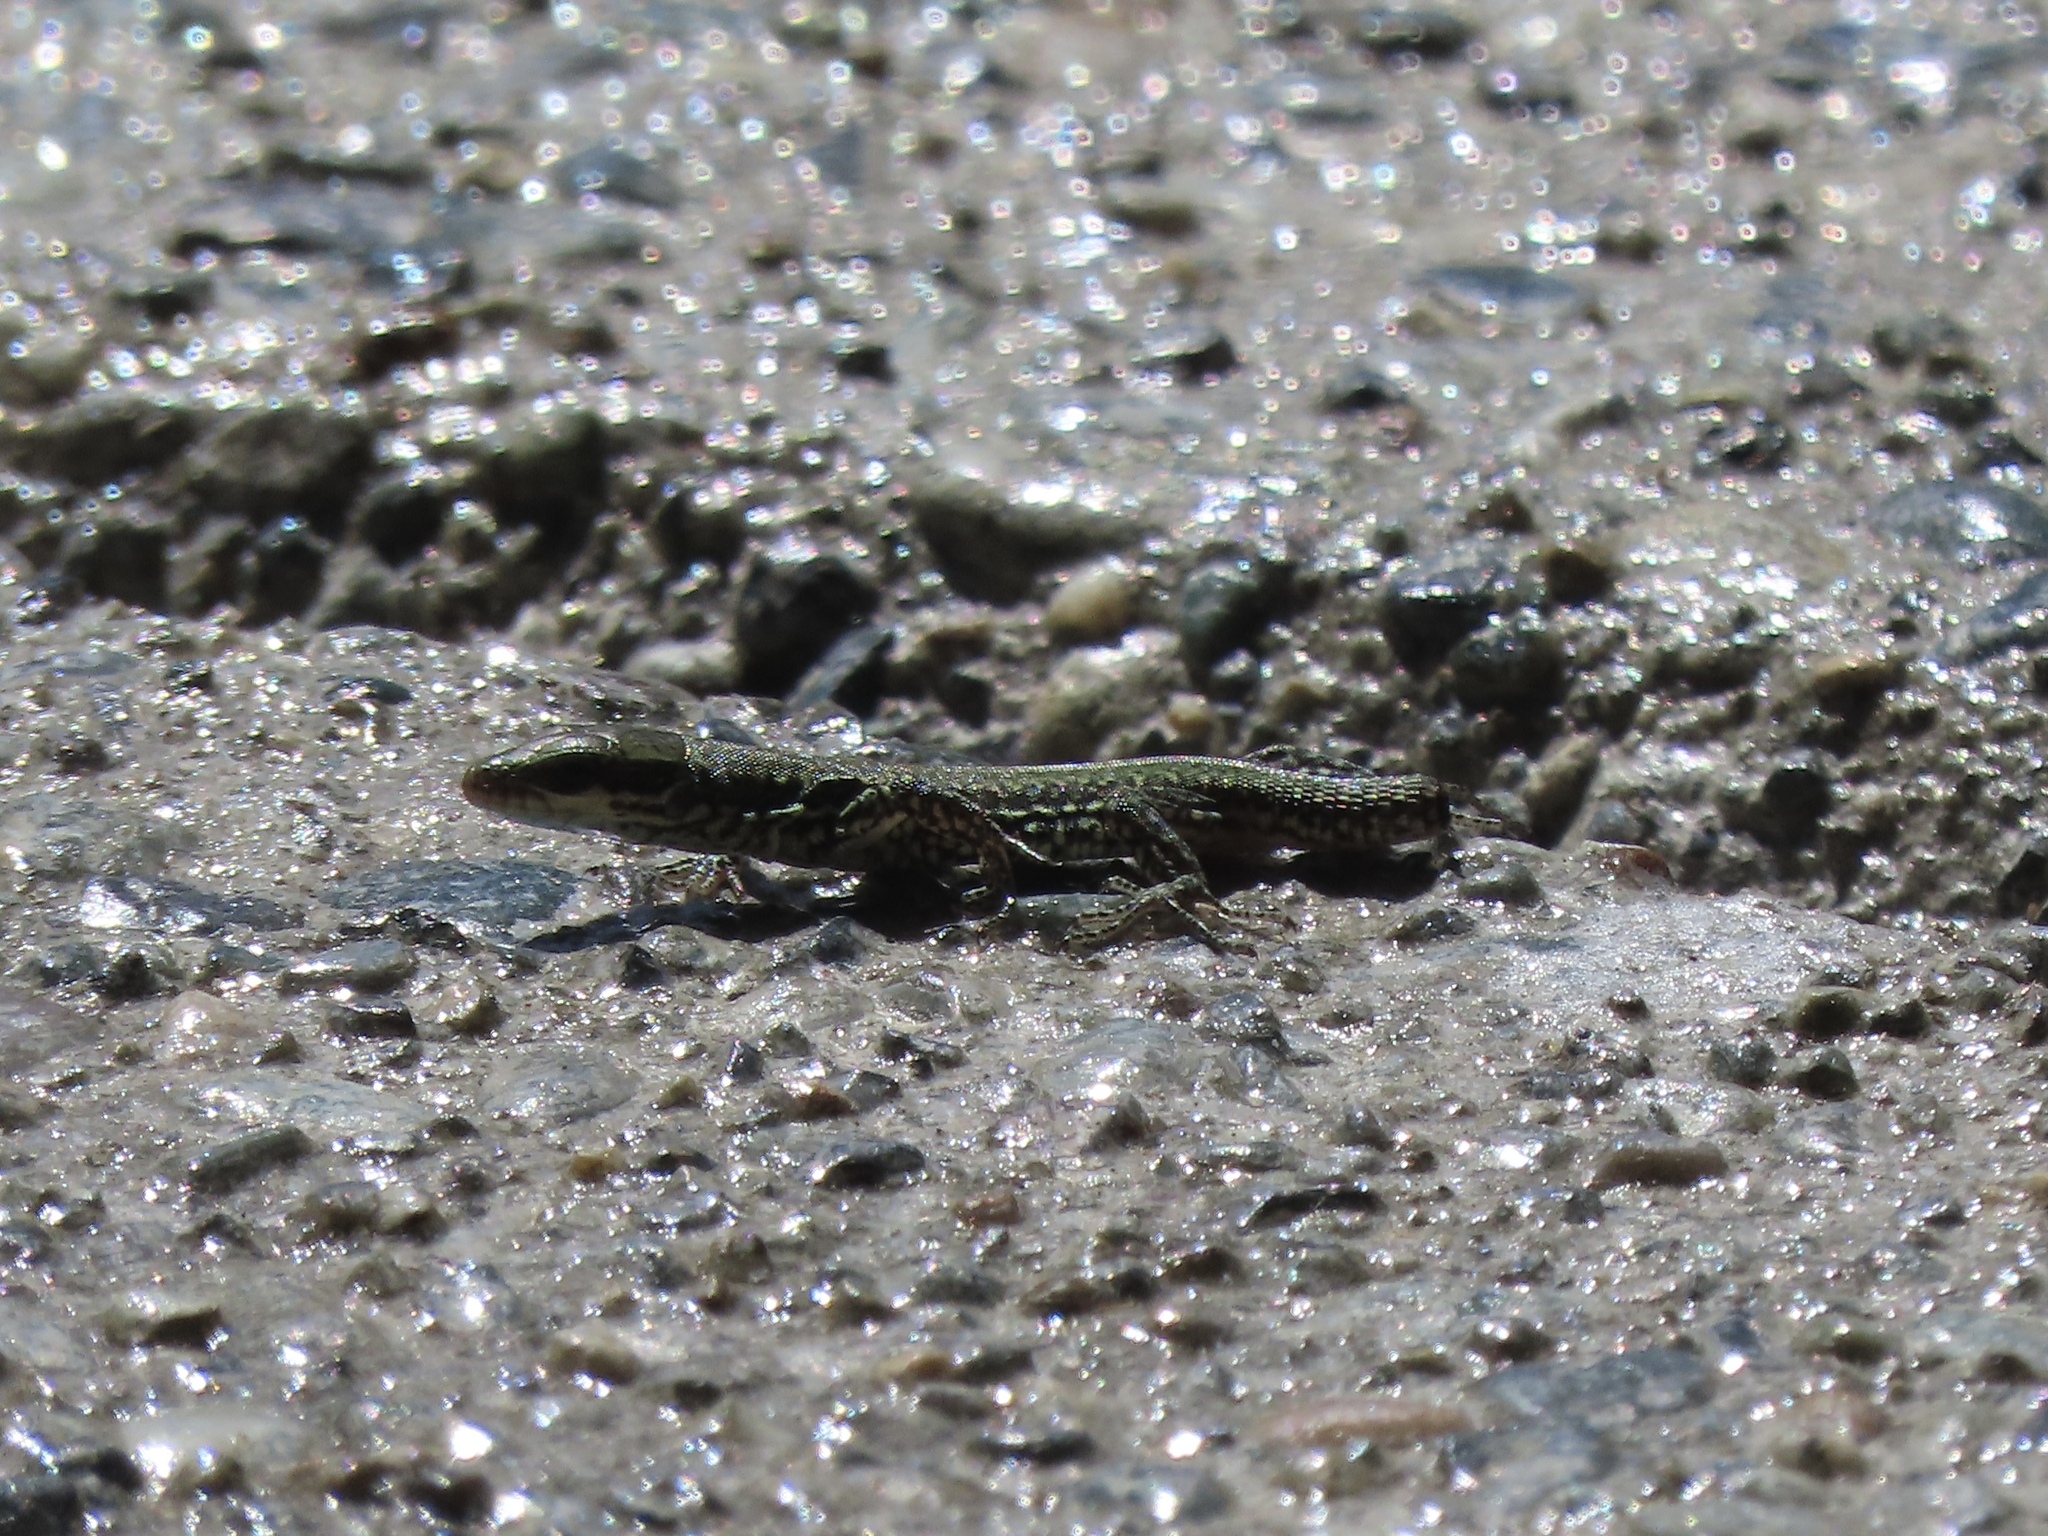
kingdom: Animalia
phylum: Chordata
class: Squamata
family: Lacertidae
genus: Podarcis
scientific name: Podarcis muralis
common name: Common wall lizard
